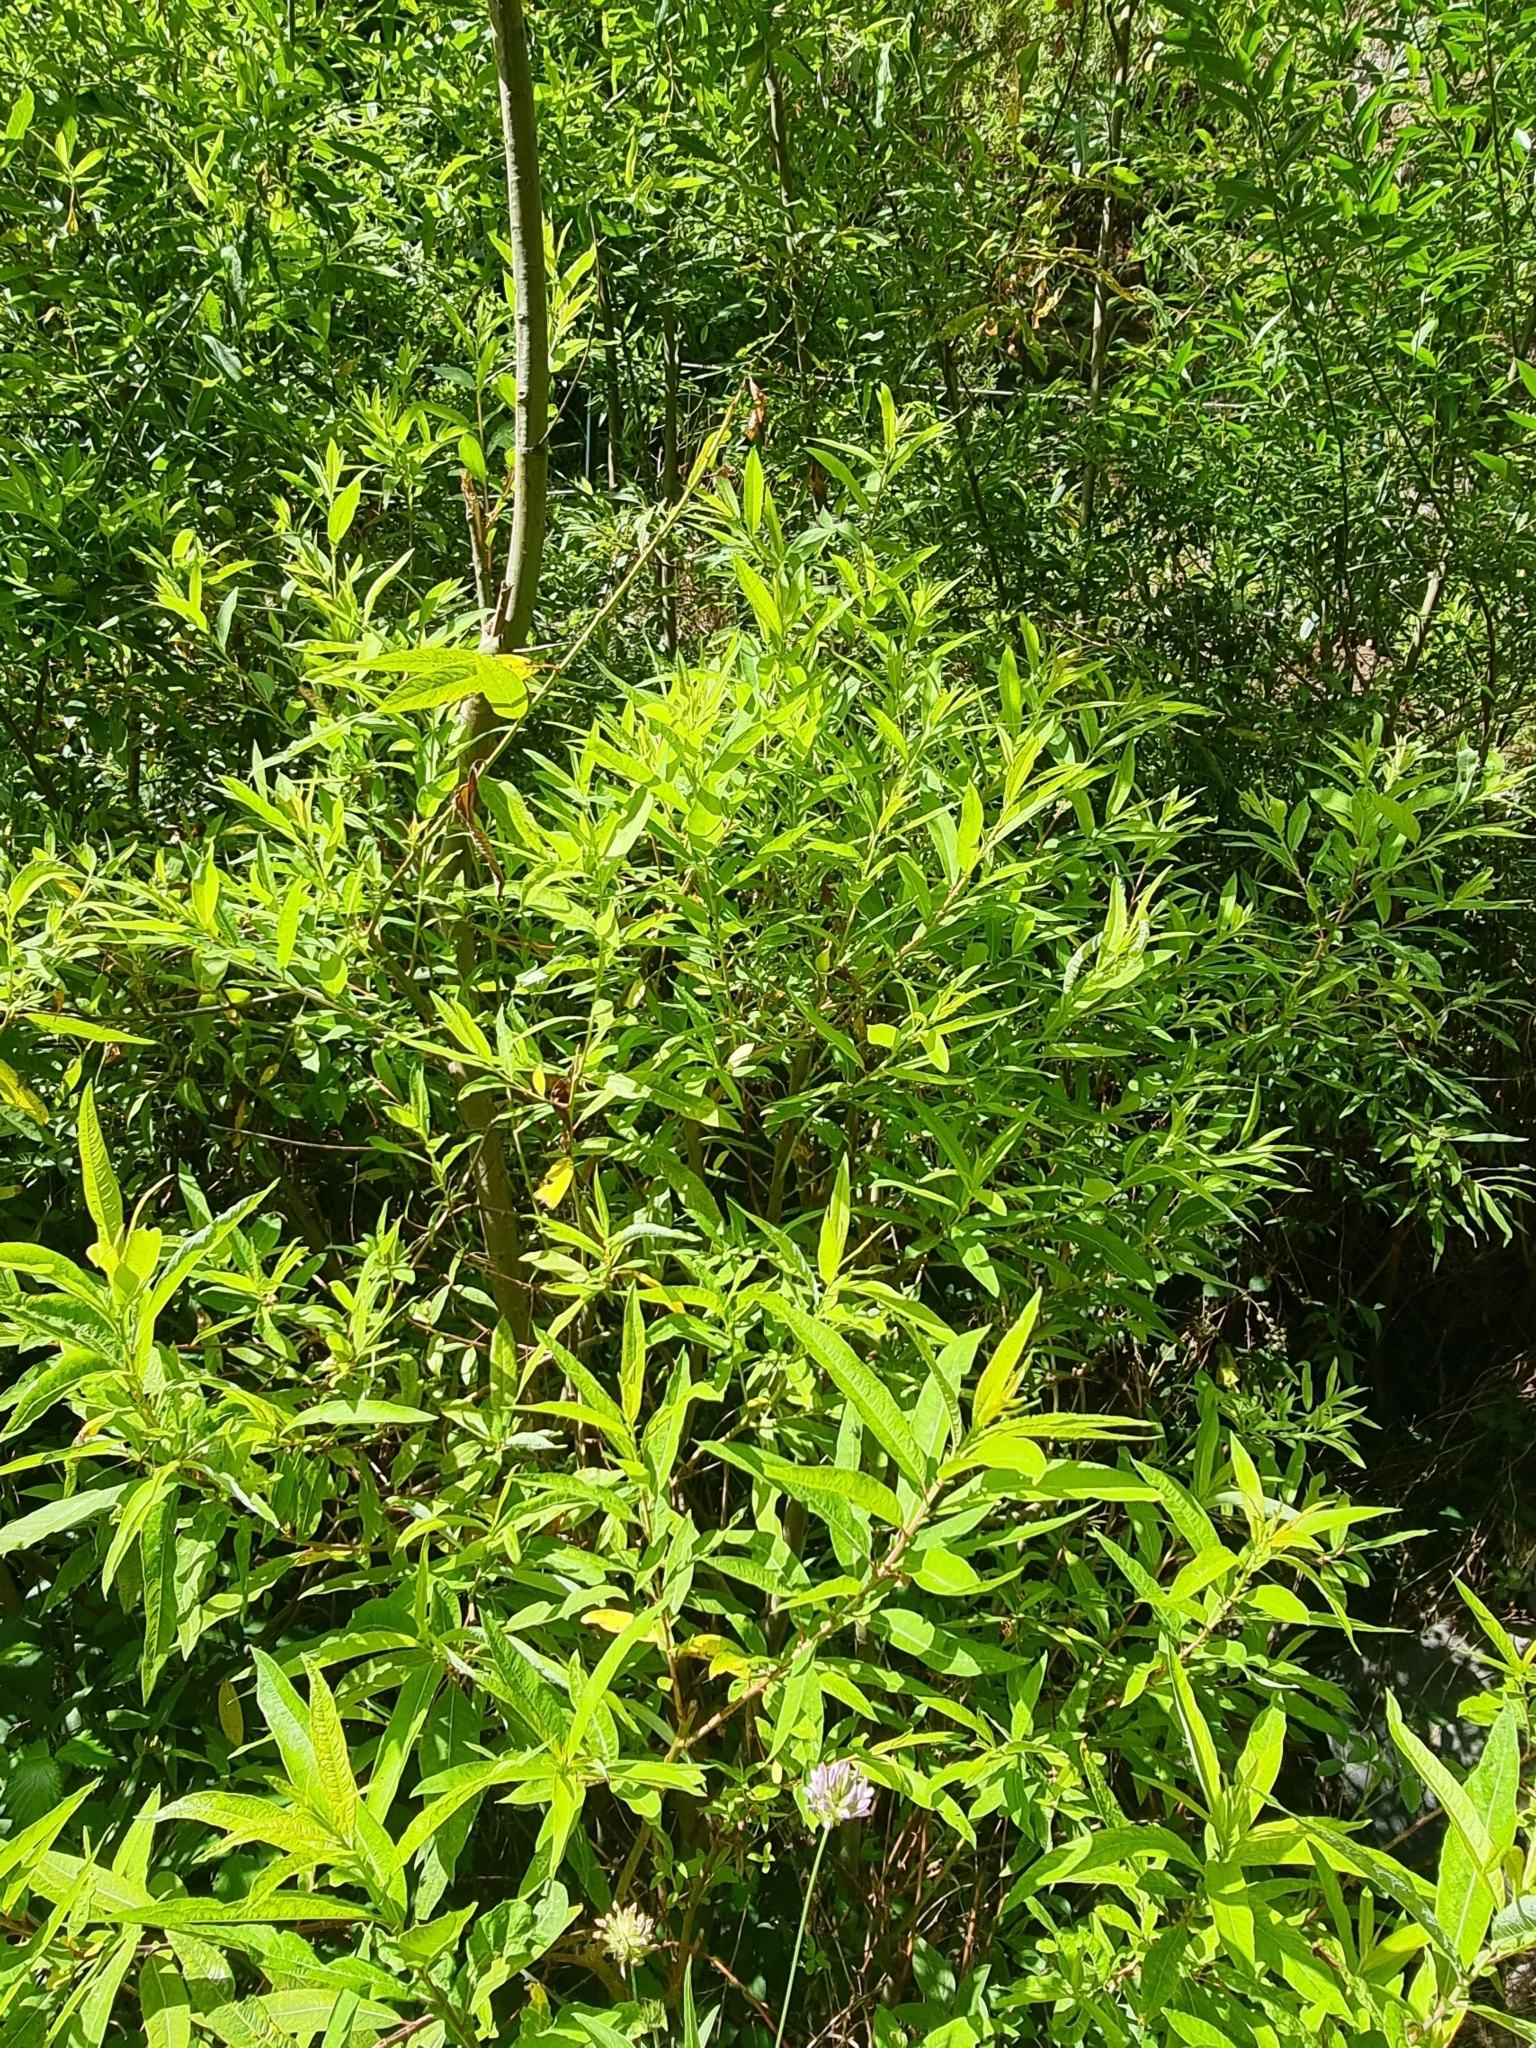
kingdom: Plantae
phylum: Tracheophyta
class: Magnoliopsida
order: Malpighiales
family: Salicaceae
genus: Salix
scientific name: Salix canariensis
